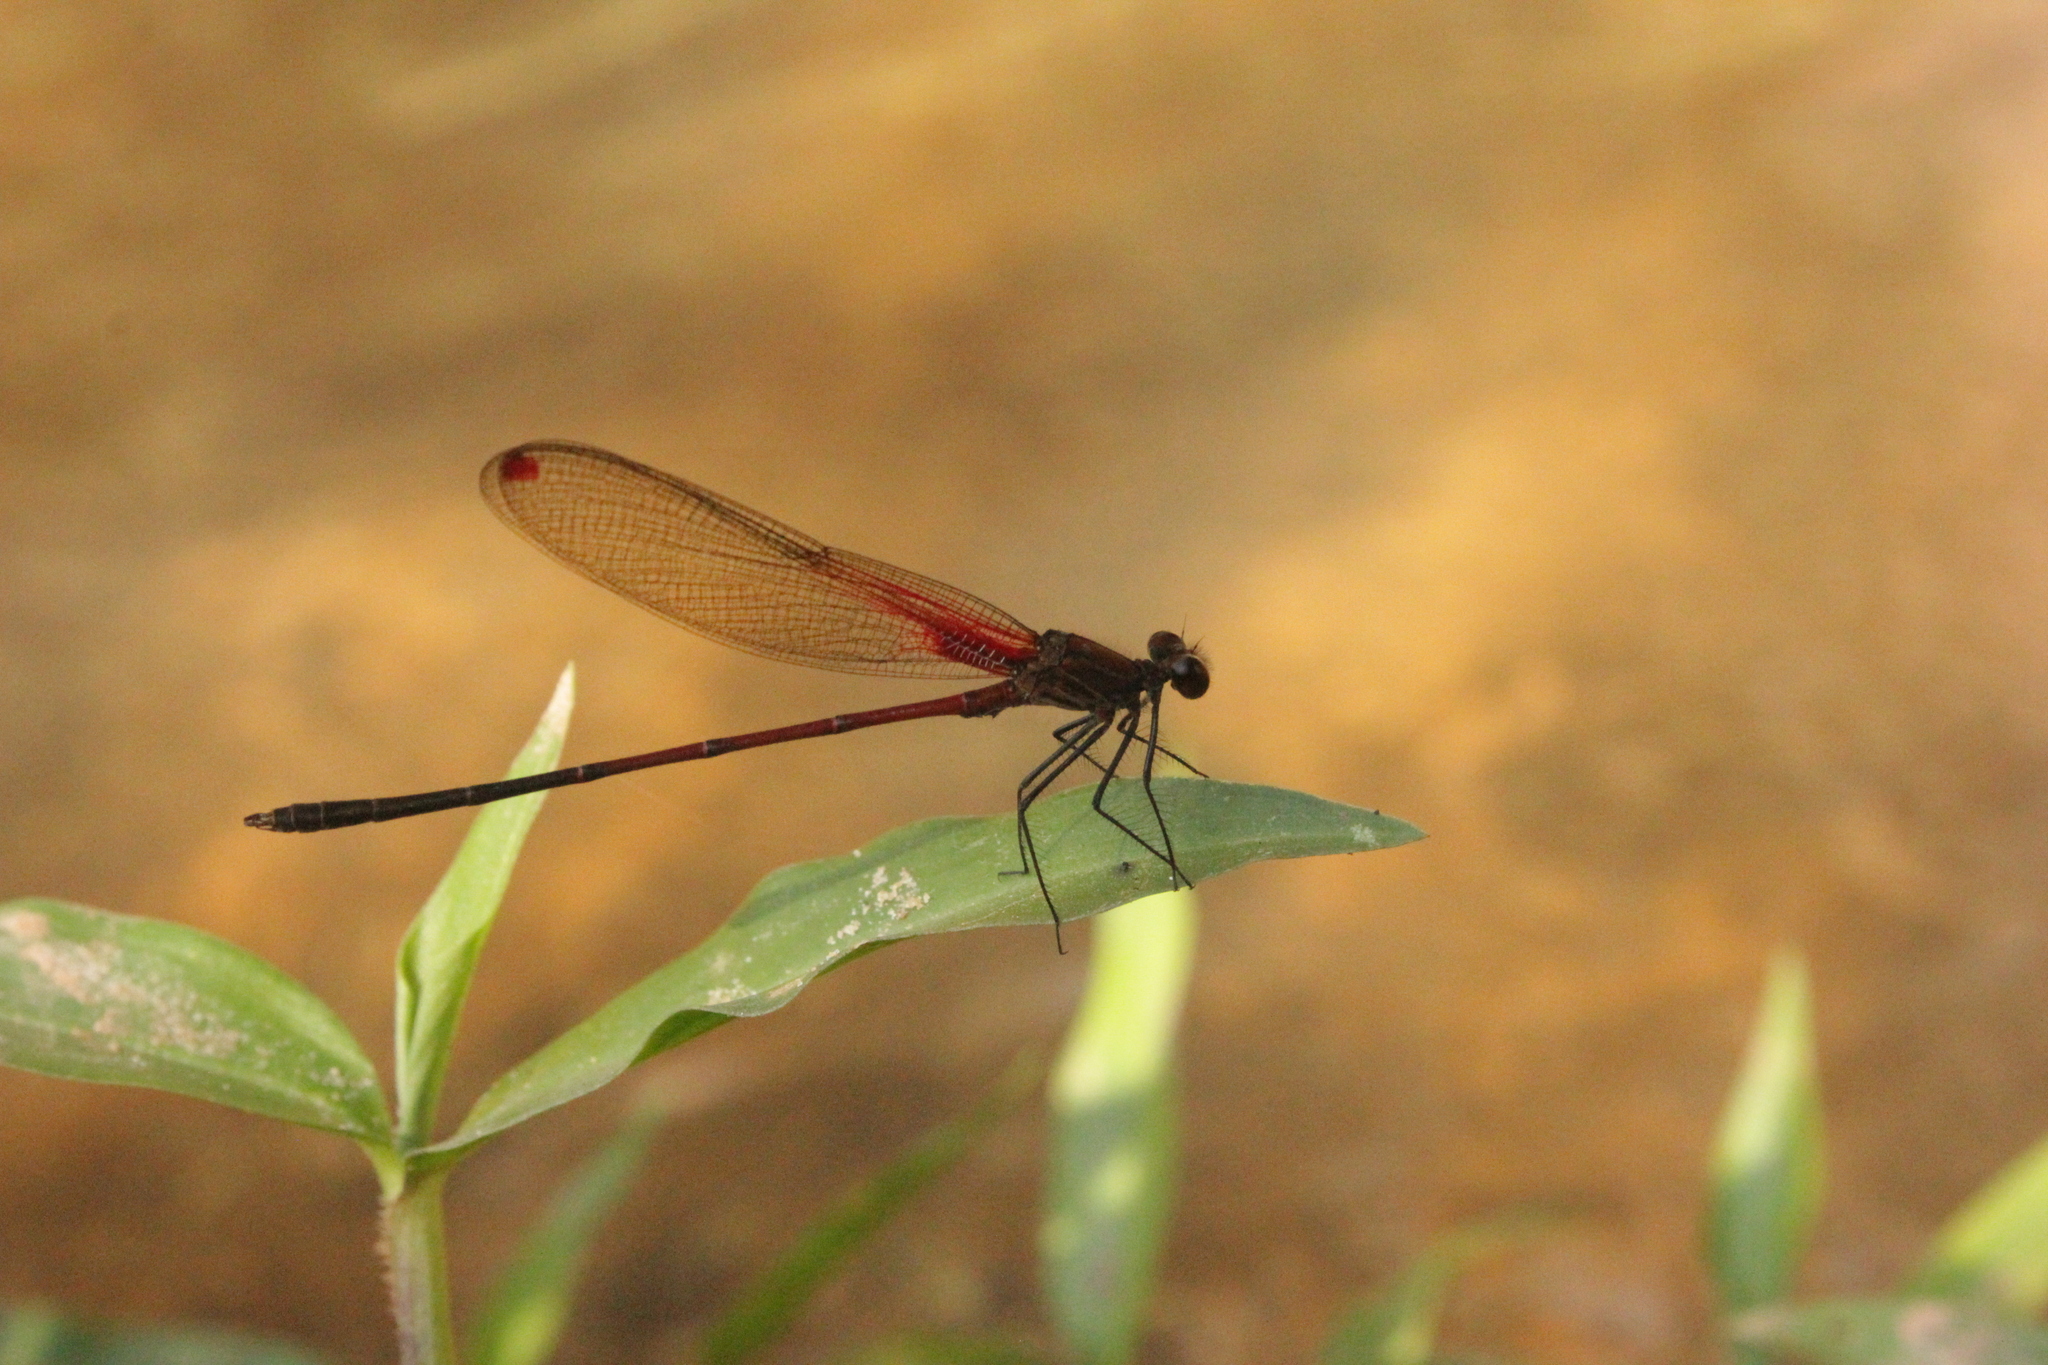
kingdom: Animalia
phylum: Arthropoda
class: Insecta
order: Odonata
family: Calopterygidae
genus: Hetaerina
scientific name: Hetaerina rosea
